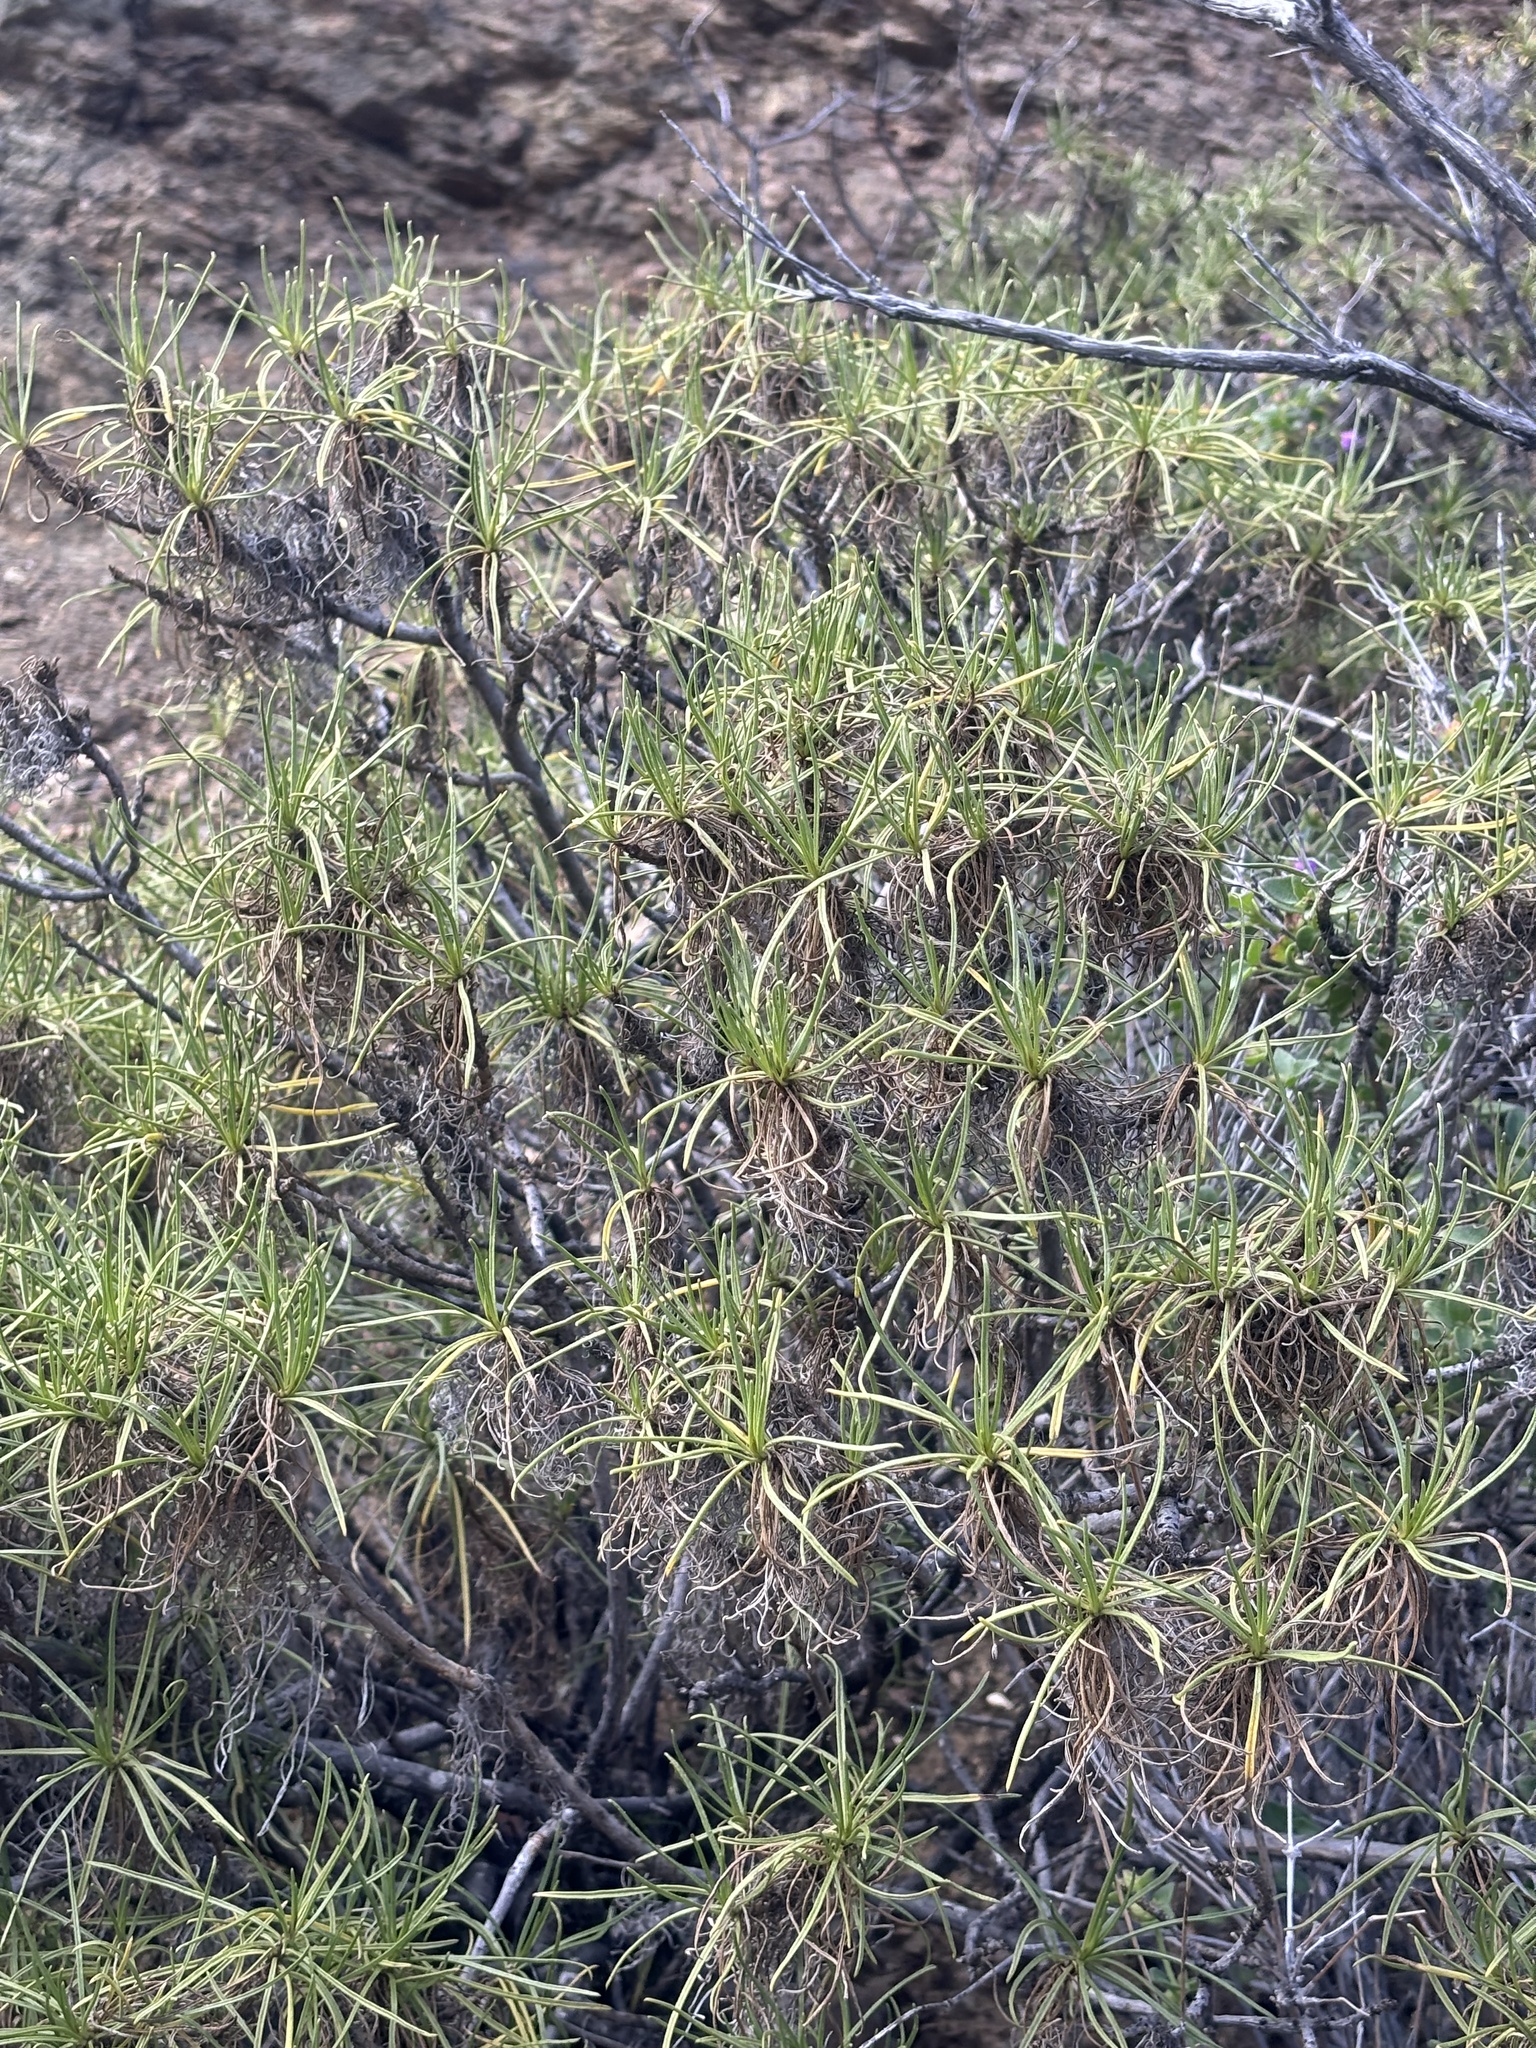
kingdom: Plantae
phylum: Tracheophyta
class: Magnoliopsida
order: Asterales
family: Asteraceae
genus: Encelia
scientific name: Encelia stenophylla
